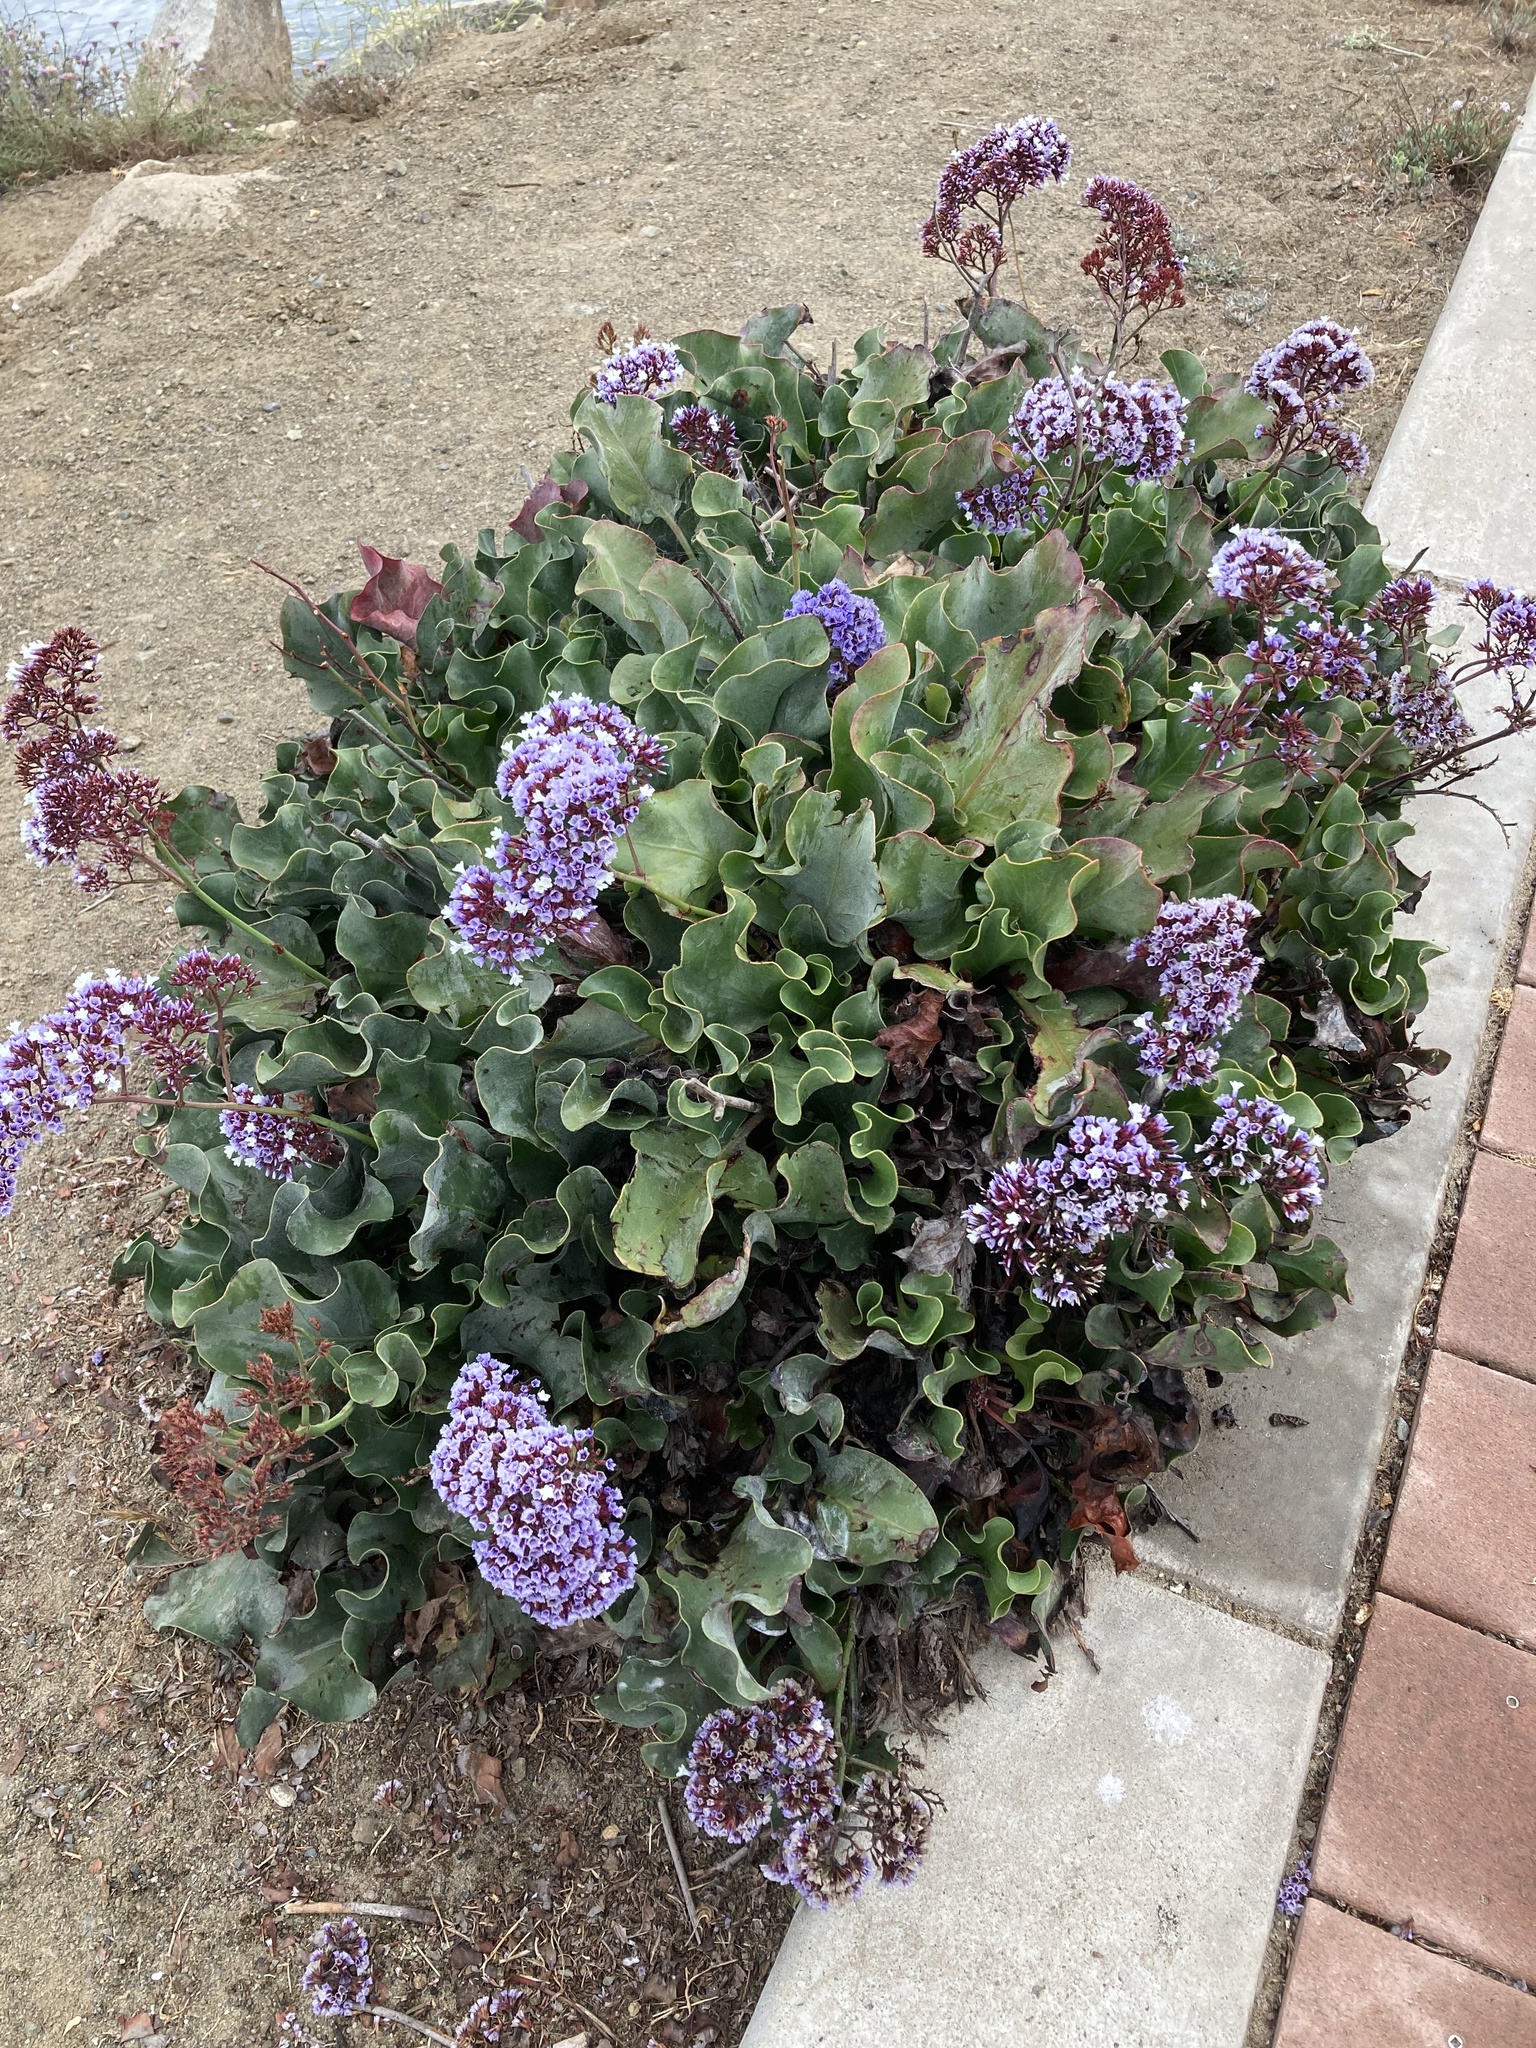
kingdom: Plantae
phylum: Tracheophyta
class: Magnoliopsida
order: Caryophyllales
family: Plumbaginaceae
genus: Limonium
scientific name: Limonium perezii
